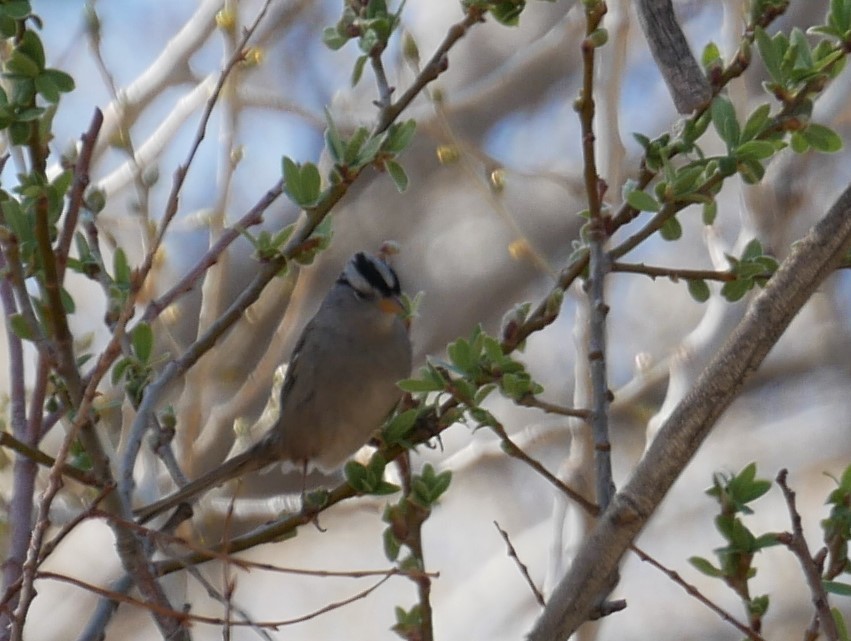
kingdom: Animalia
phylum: Chordata
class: Aves
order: Passeriformes
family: Passerellidae
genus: Zonotrichia
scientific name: Zonotrichia leucophrys
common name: White-crowned sparrow
